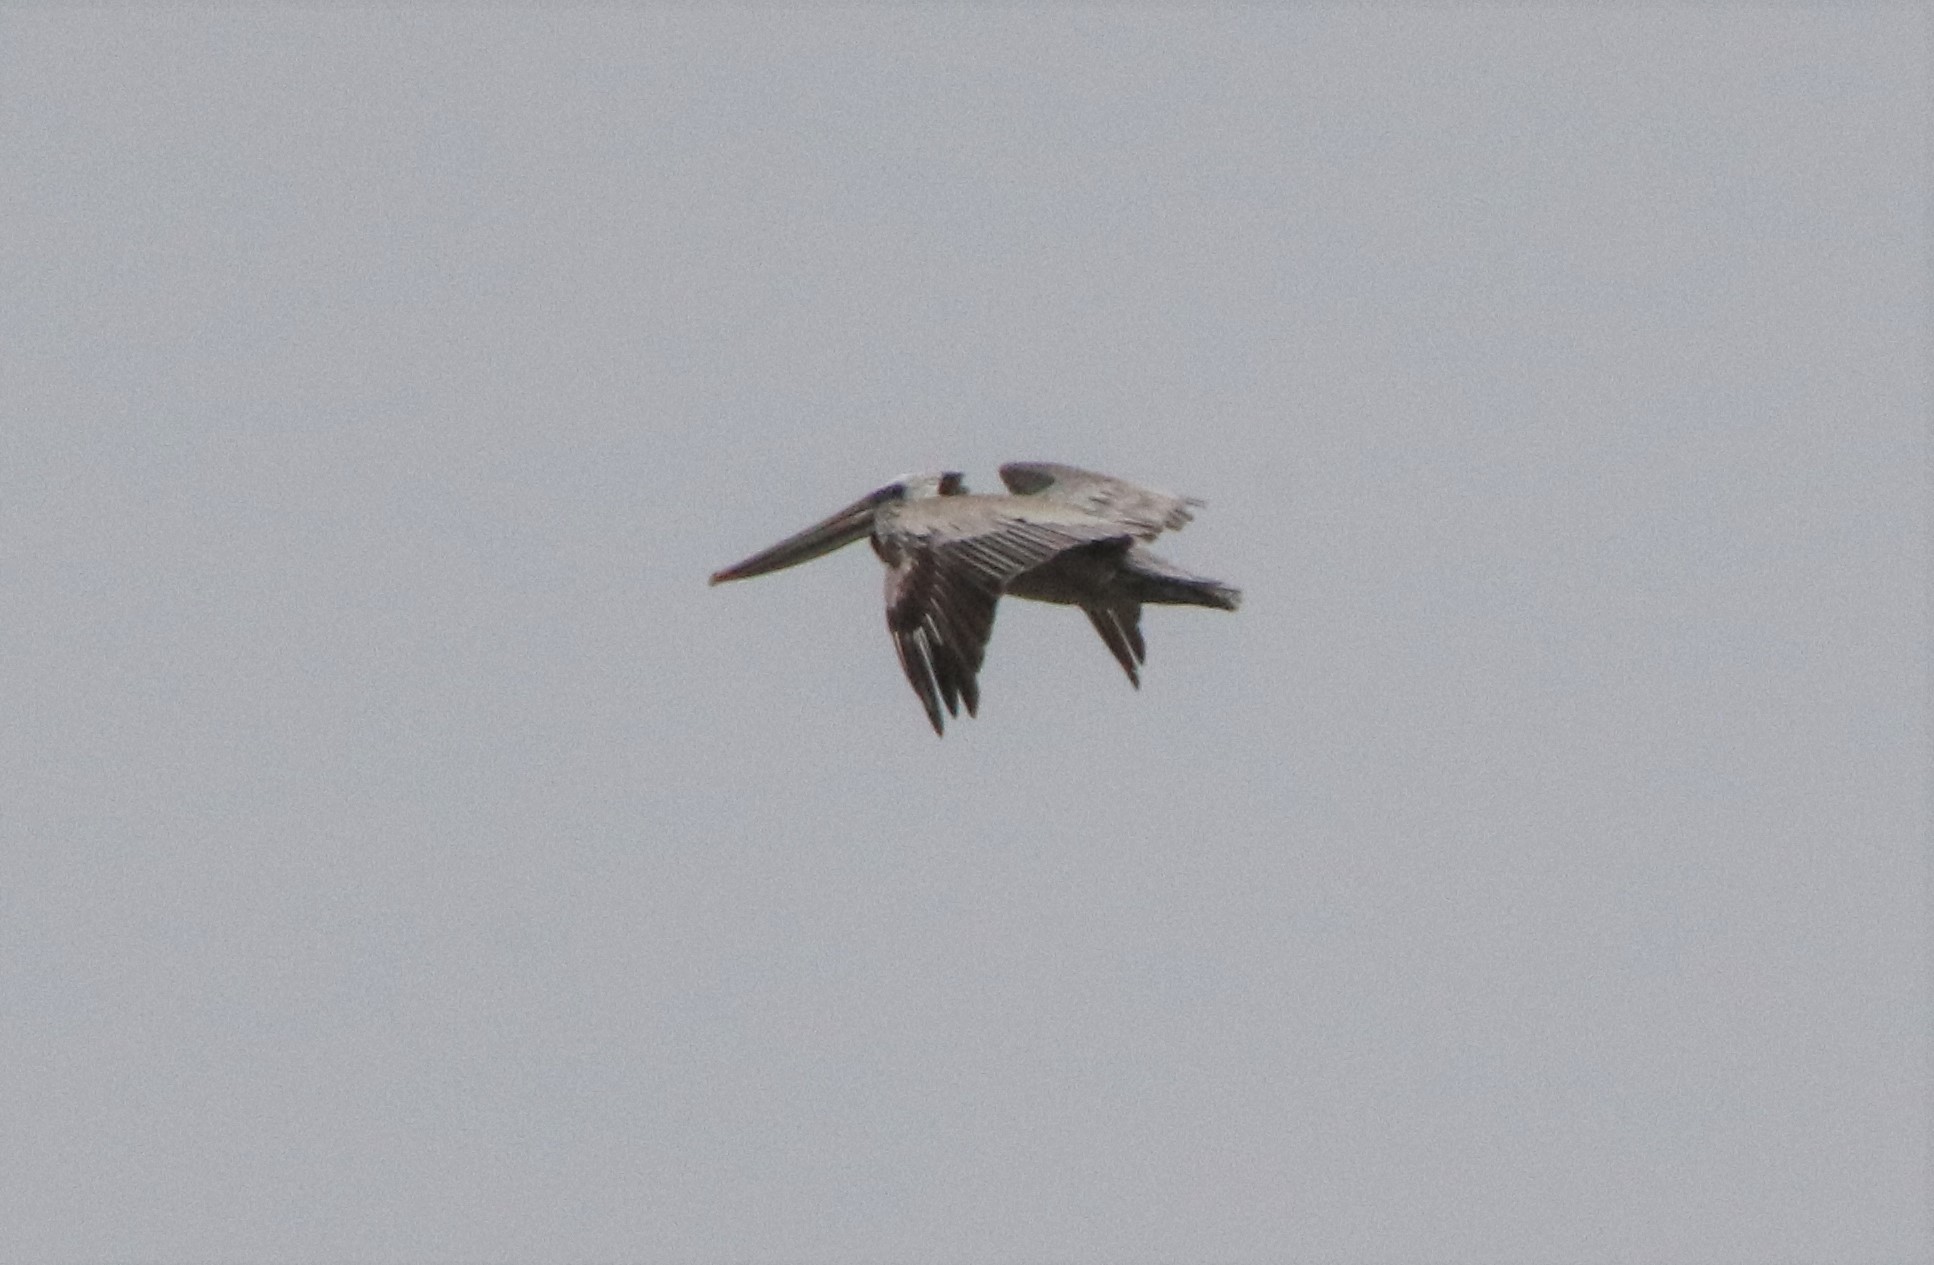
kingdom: Animalia
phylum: Chordata
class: Aves
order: Pelecaniformes
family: Pelecanidae
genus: Pelecanus
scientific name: Pelecanus occidentalis
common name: Brown pelican
